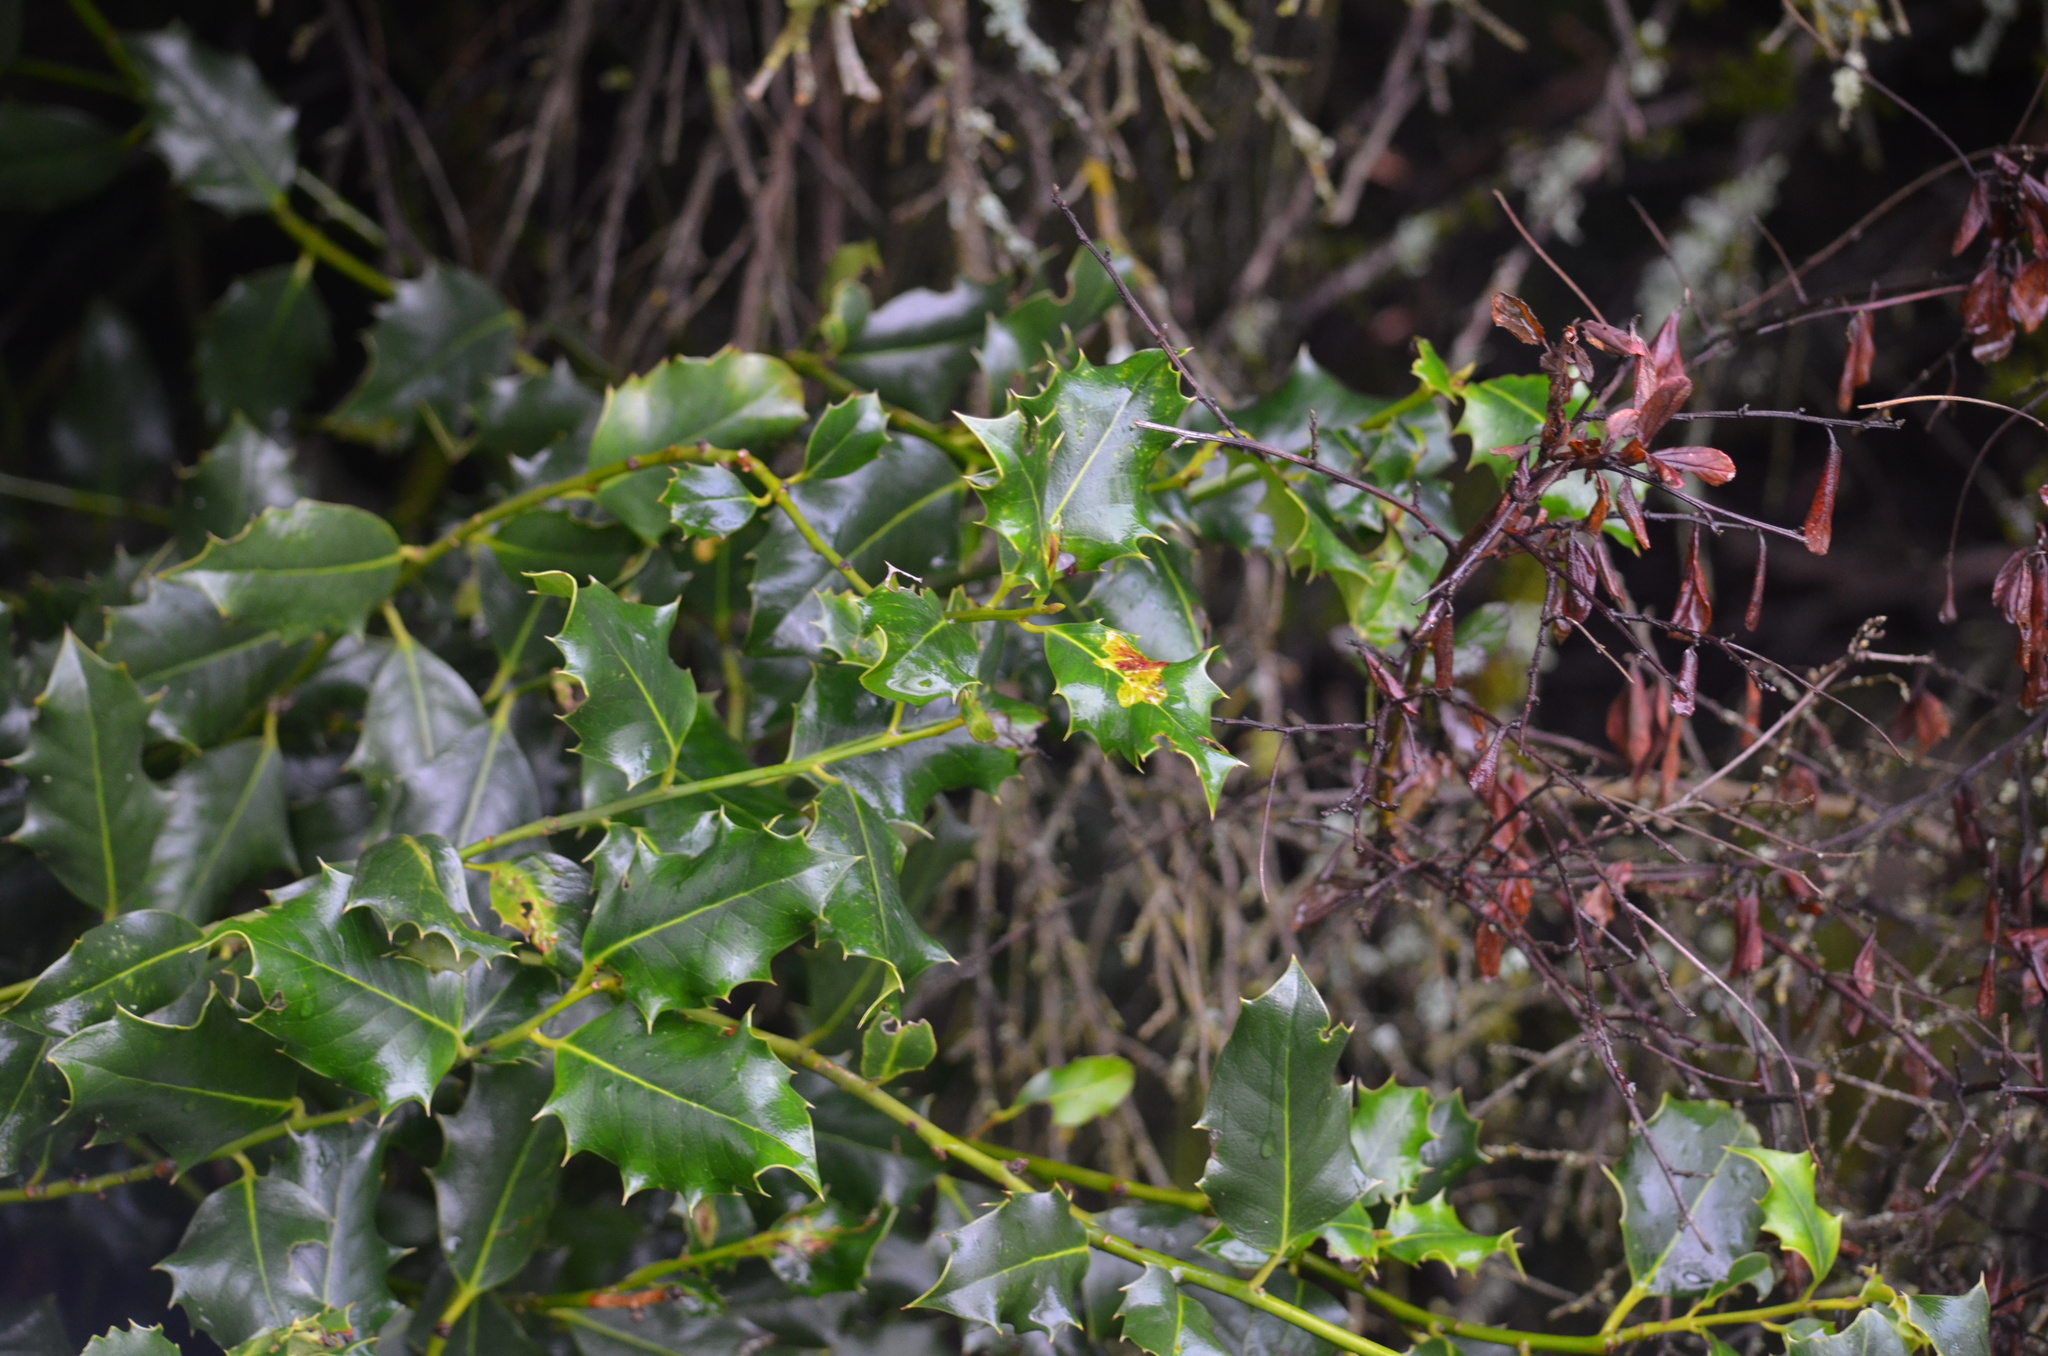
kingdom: Animalia
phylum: Arthropoda
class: Insecta
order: Diptera
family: Agromyzidae
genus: Phytomyza
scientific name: Phytomyza ilicis
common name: Holly leafminer
